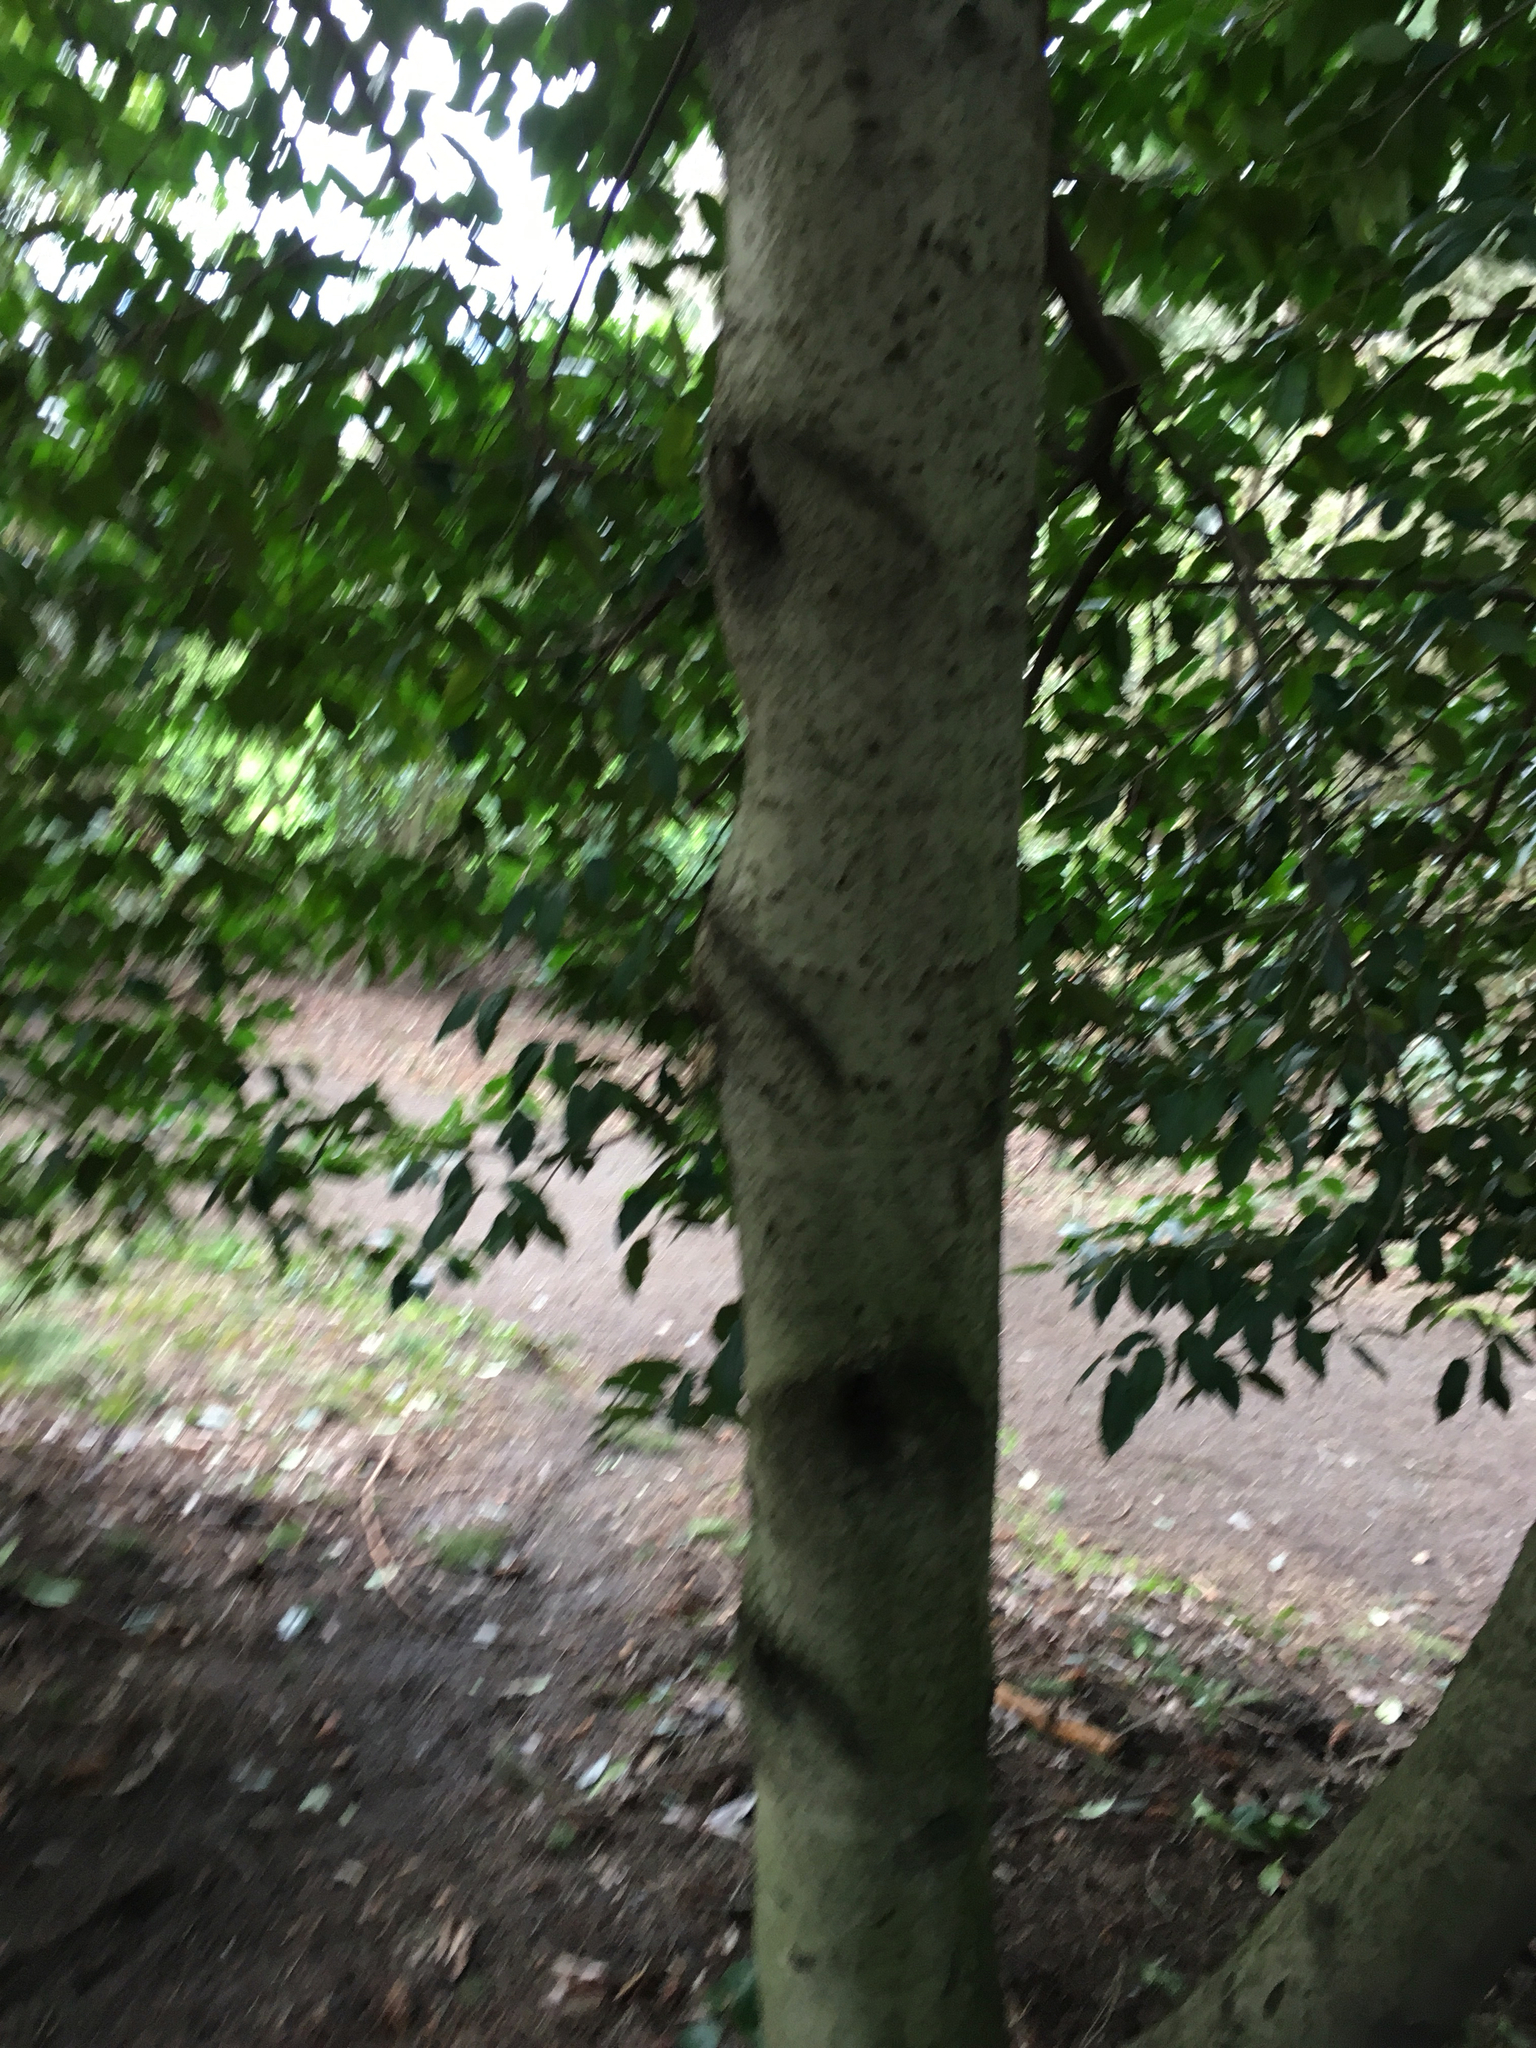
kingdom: Plantae
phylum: Tracheophyta
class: Magnoliopsida
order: Rosales
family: Rosaceae
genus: Prunus
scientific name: Prunus lusitanica
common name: Portugal laurel
